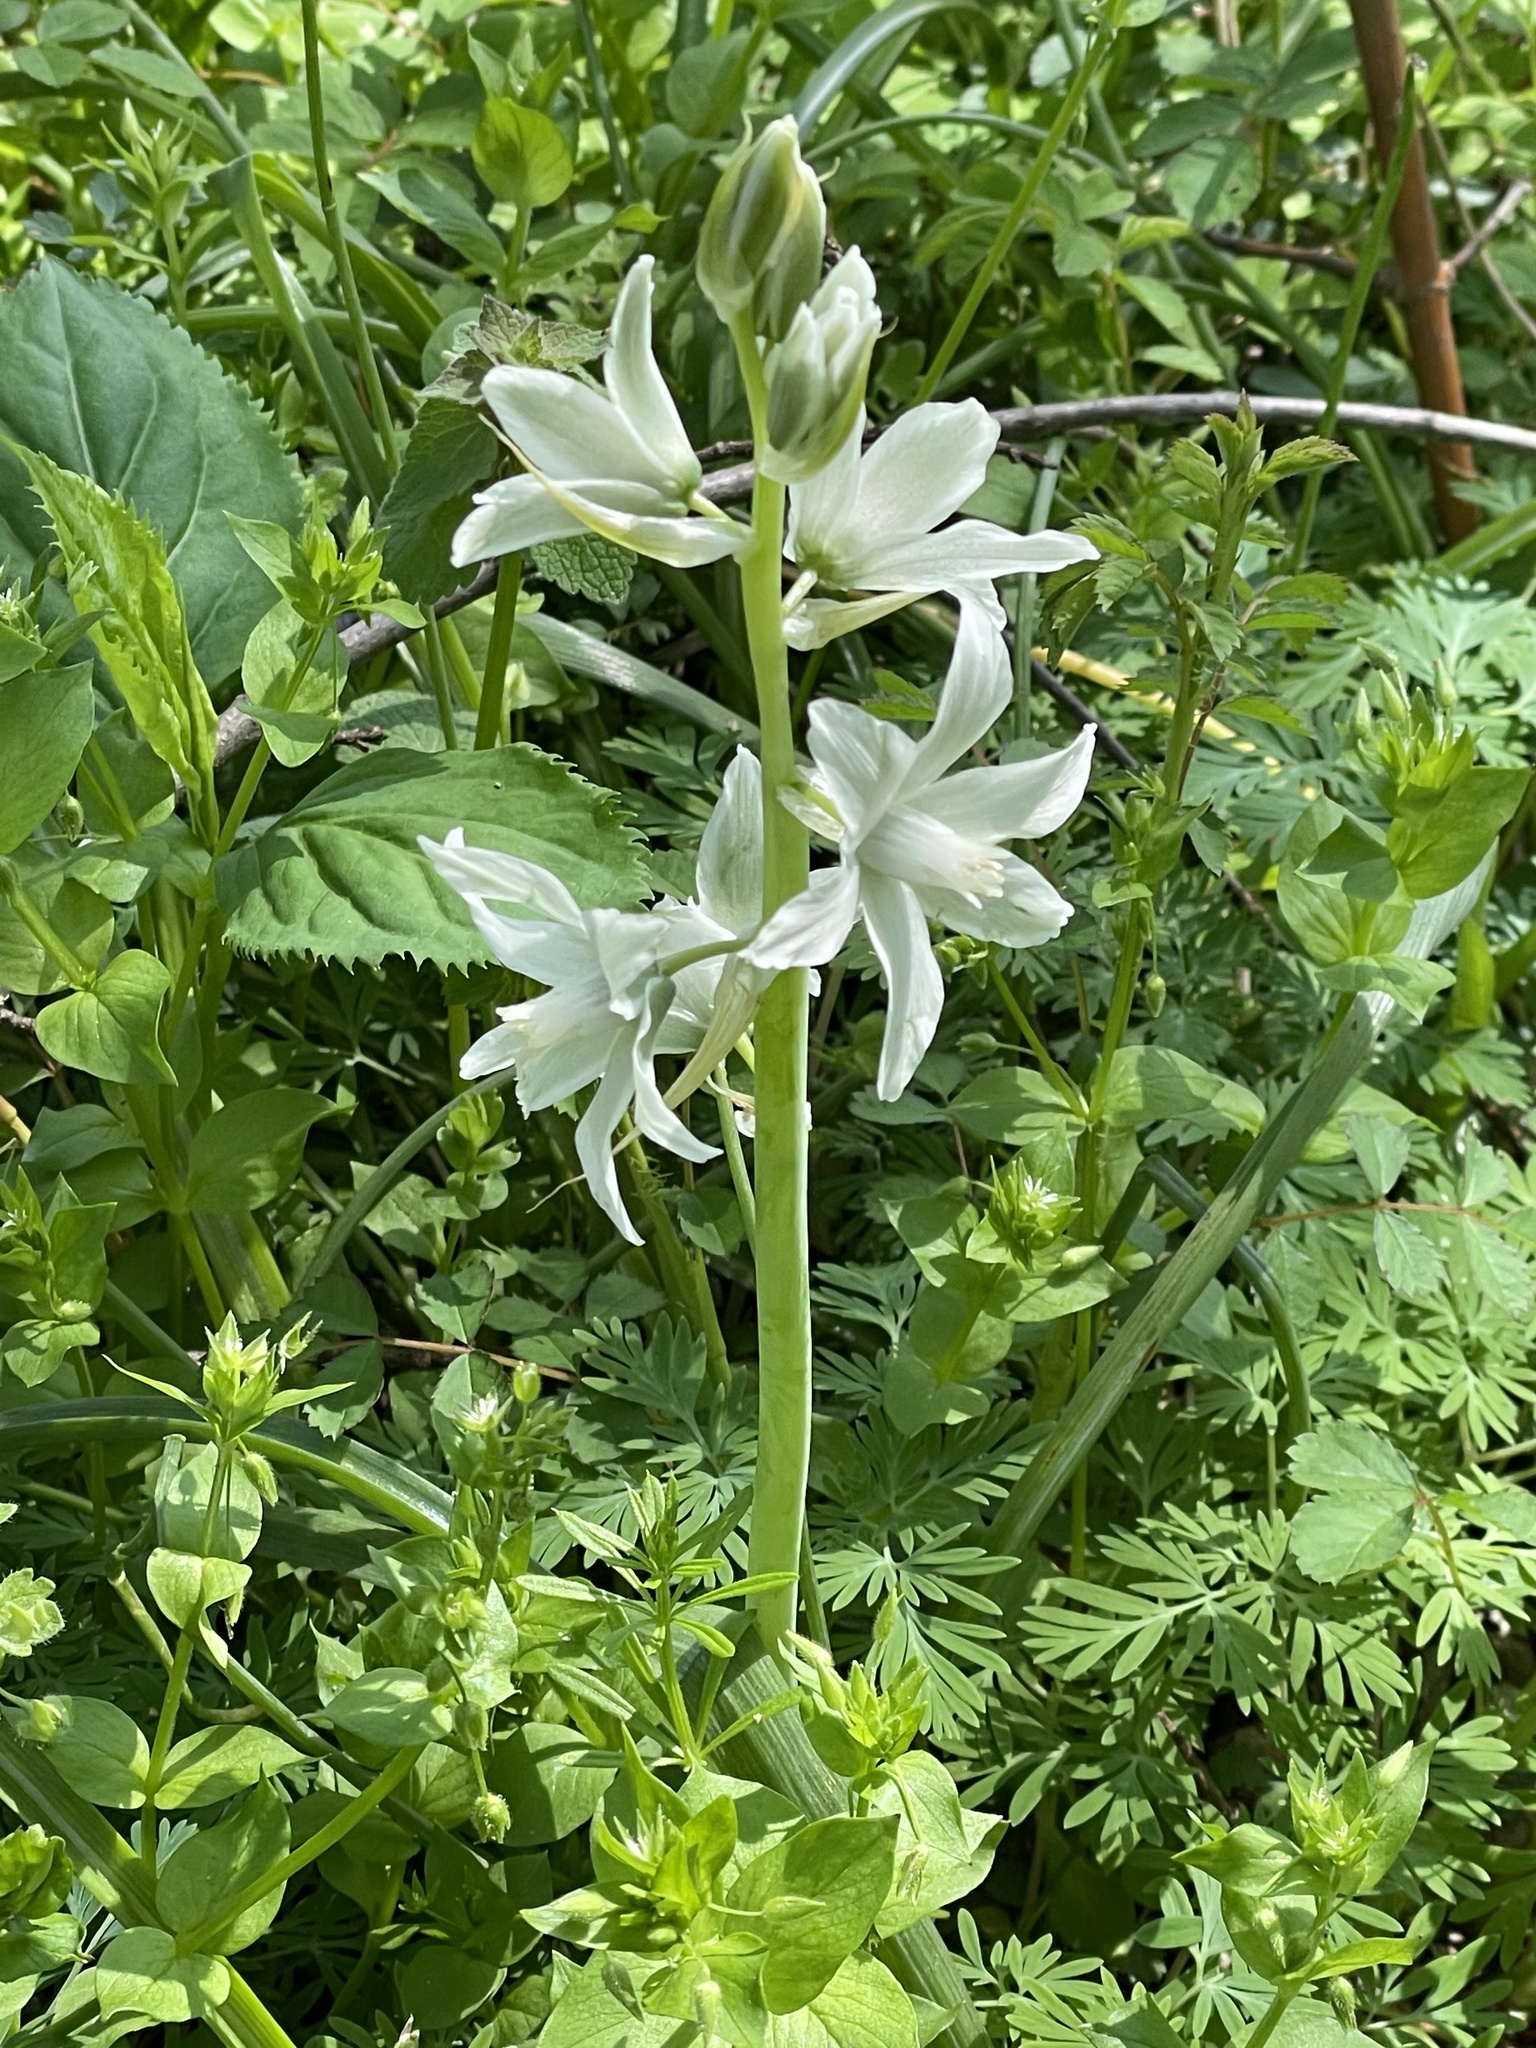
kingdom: Plantae
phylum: Tracheophyta
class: Liliopsida
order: Asparagales
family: Asparagaceae
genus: Ornithogalum
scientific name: Ornithogalum nutans
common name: Drooping star-of-bethlehem
